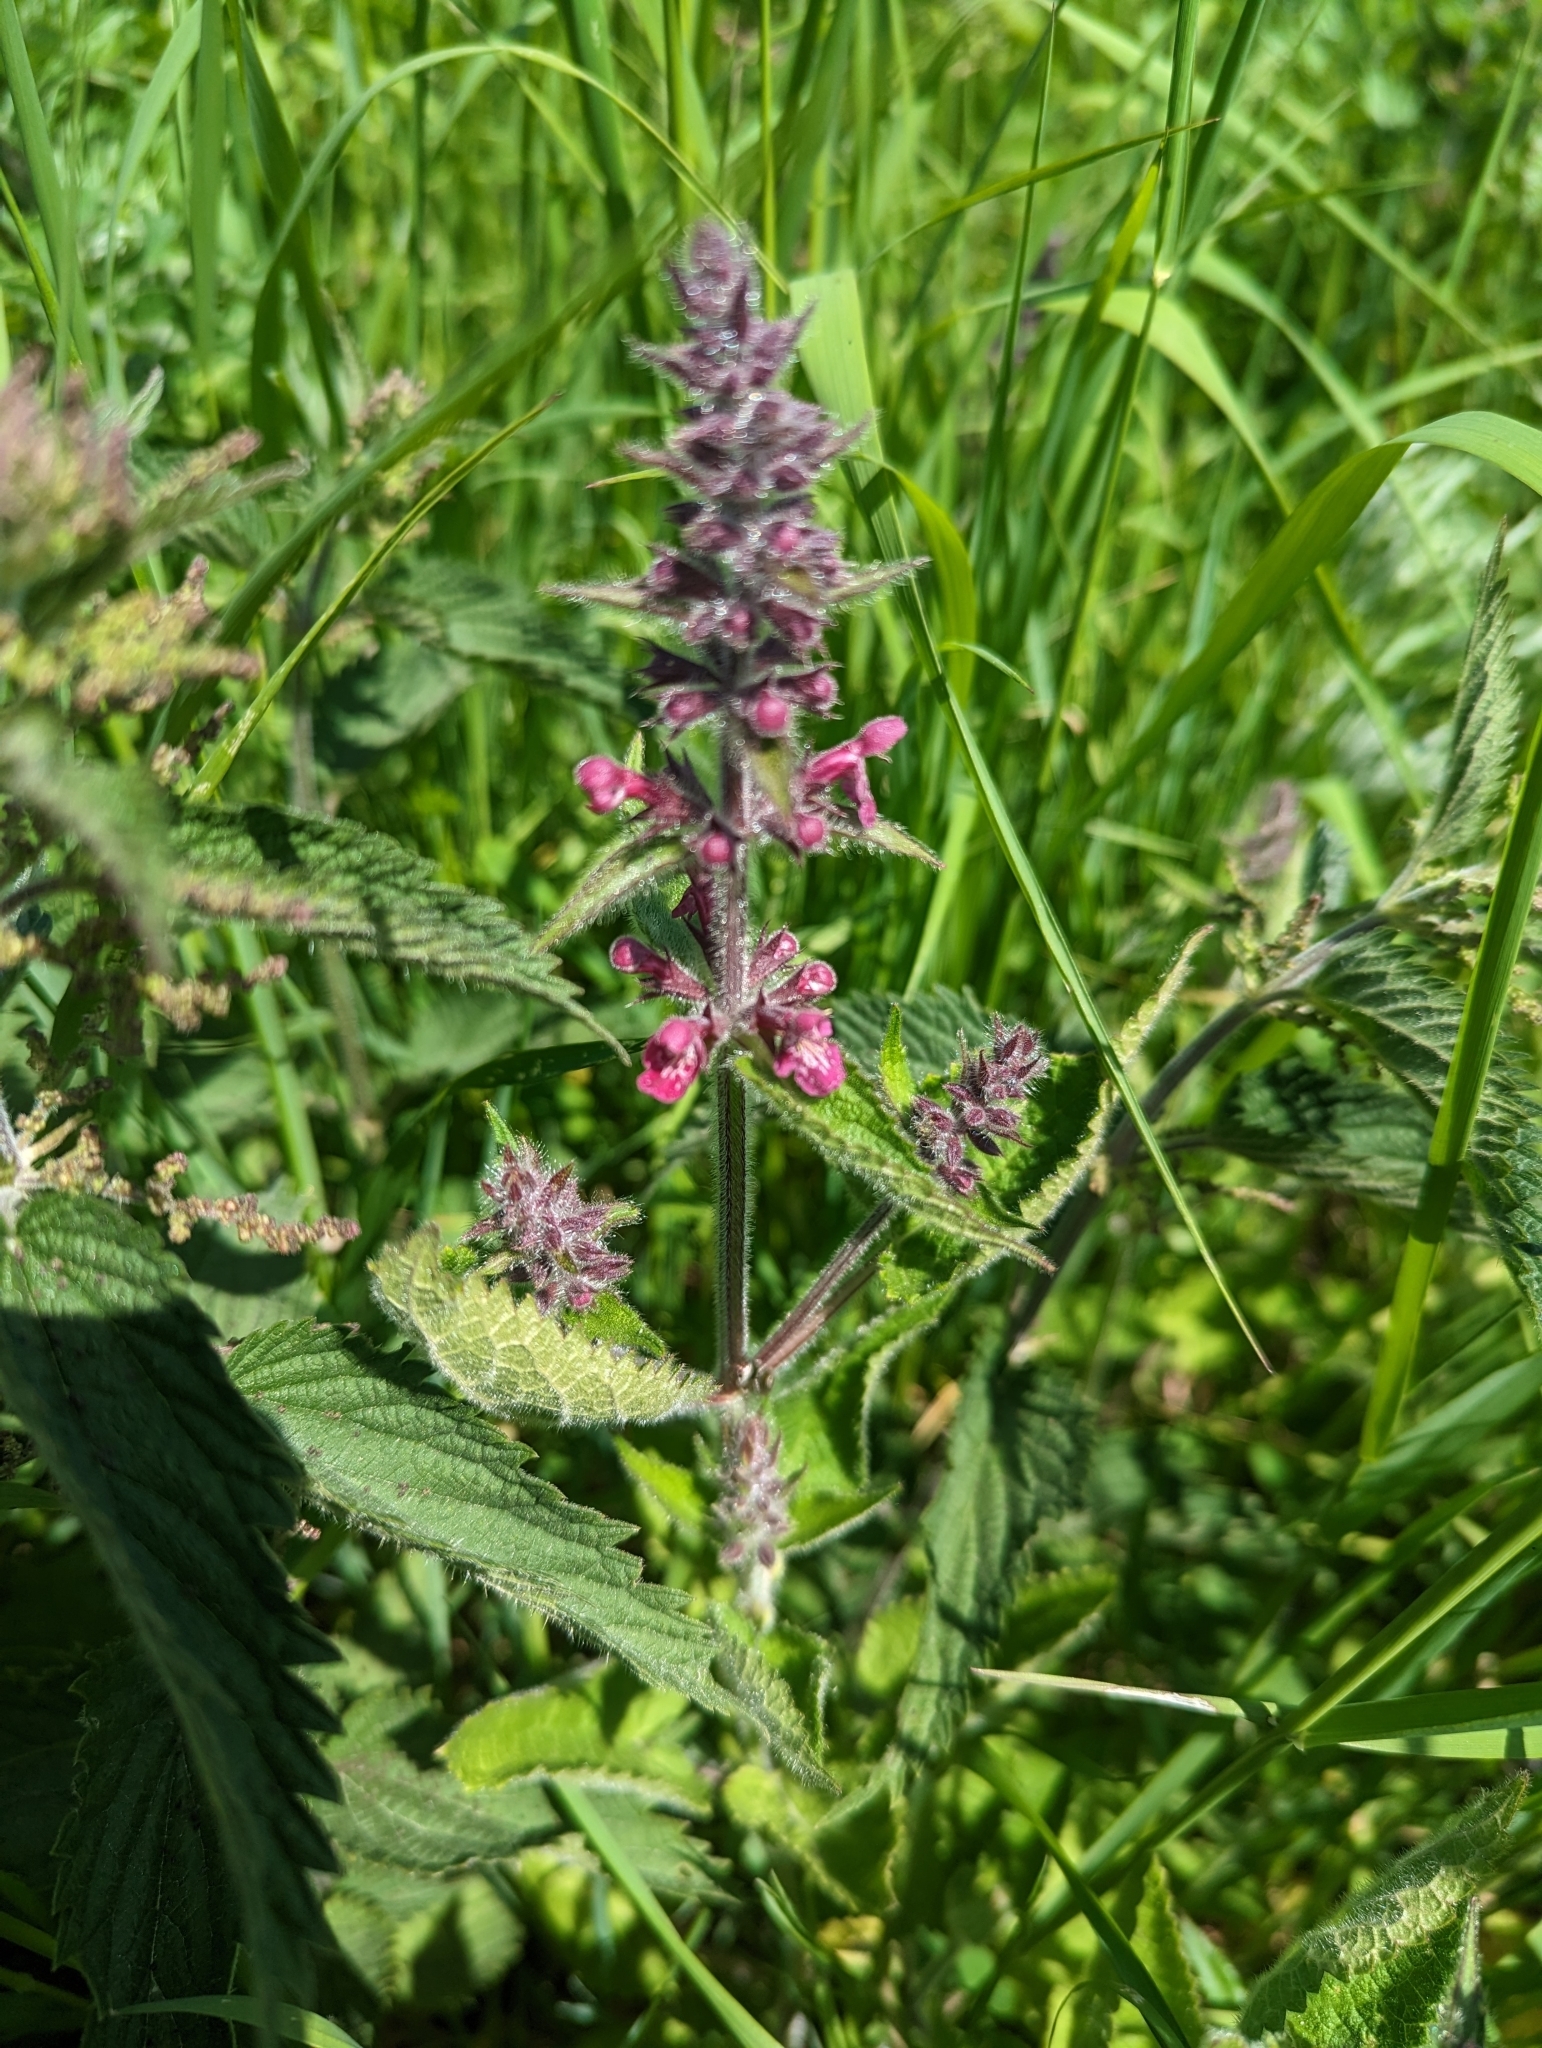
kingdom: Plantae
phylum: Tracheophyta
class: Magnoliopsida
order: Lamiales
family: Lamiaceae
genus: Stachys
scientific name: Stachys sylvatica
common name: Hedge woundwort
